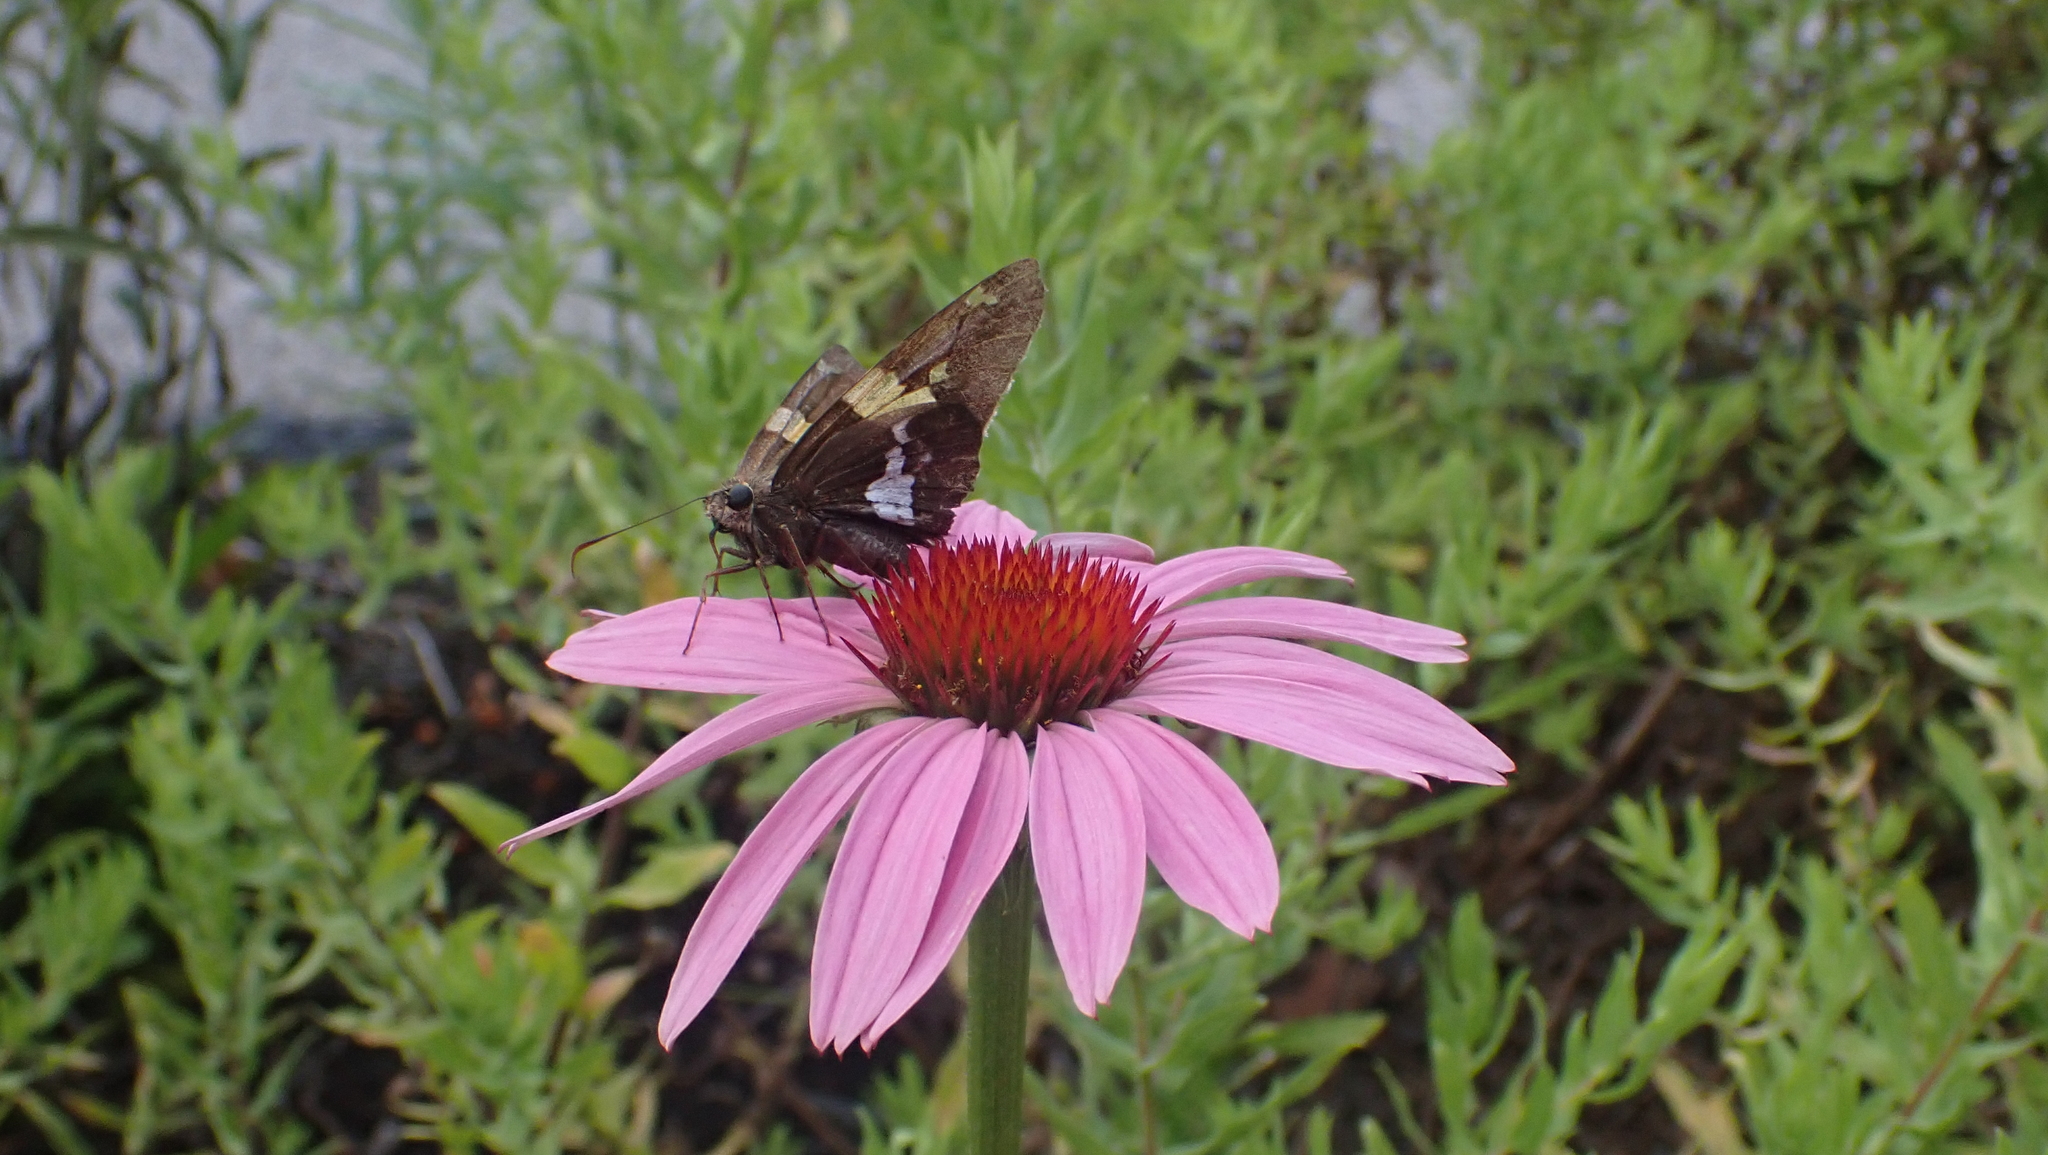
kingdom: Animalia
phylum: Arthropoda
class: Insecta
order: Lepidoptera
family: Hesperiidae
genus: Epargyreus
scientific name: Epargyreus clarus
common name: Silver-spotted skipper
